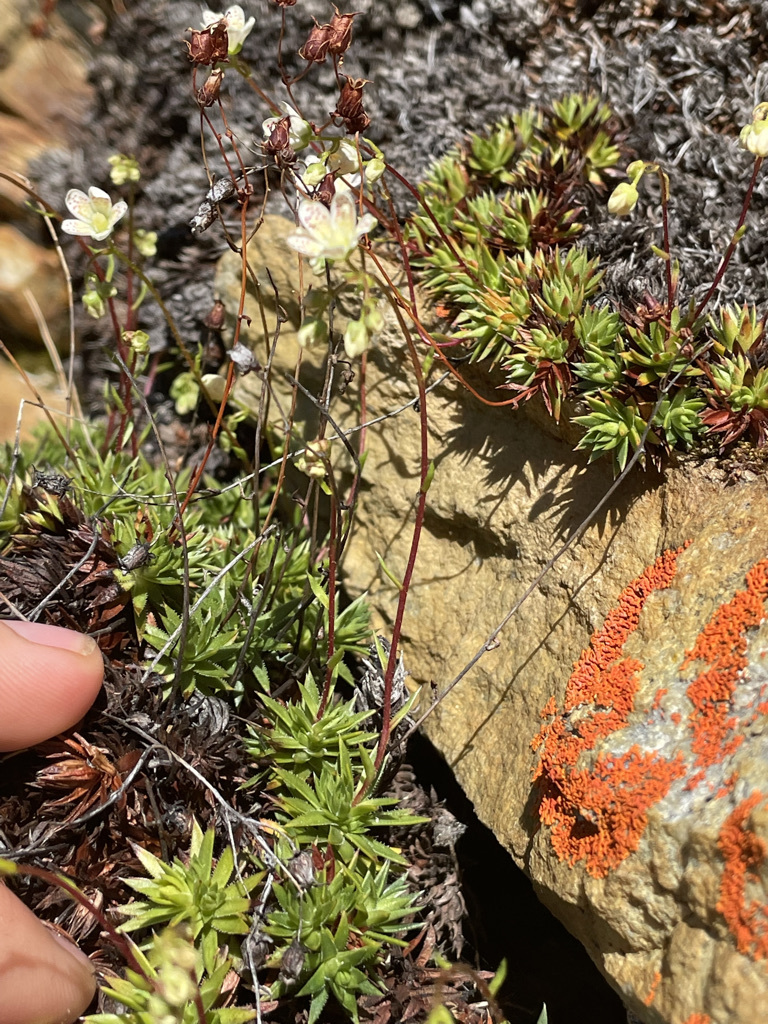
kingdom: Plantae
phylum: Tracheophyta
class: Magnoliopsida
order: Saxifragales
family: Saxifragaceae
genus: Saxifraga
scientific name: Saxifraga bronchialis
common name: Matted saxifrage
